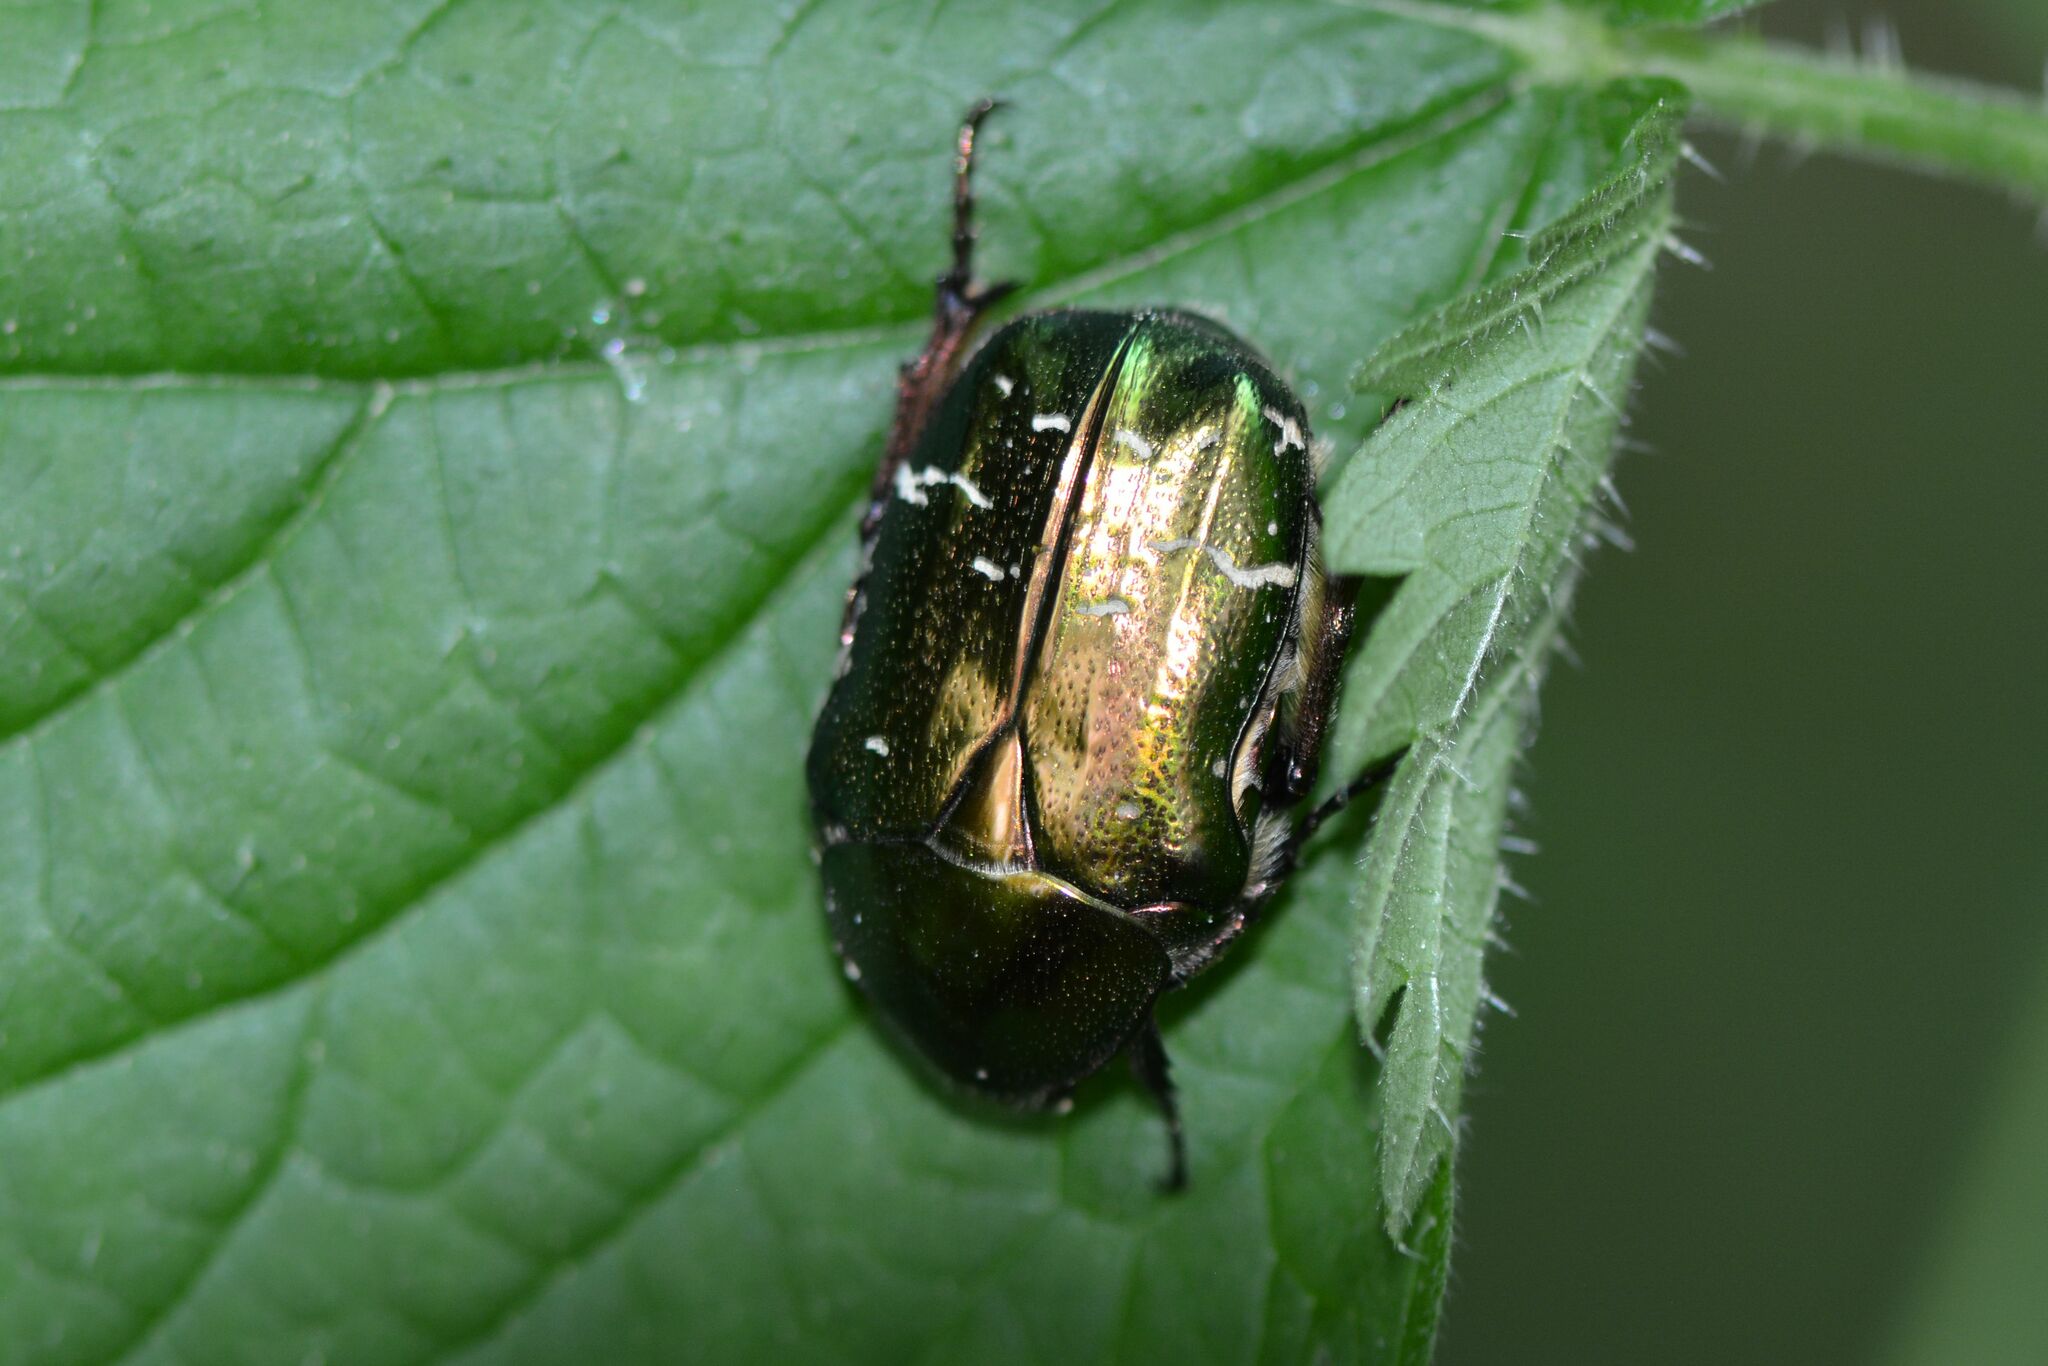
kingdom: Animalia
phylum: Arthropoda
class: Insecta
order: Coleoptera
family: Scarabaeidae
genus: Cetonia
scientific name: Cetonia aurata
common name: Rose chafer
